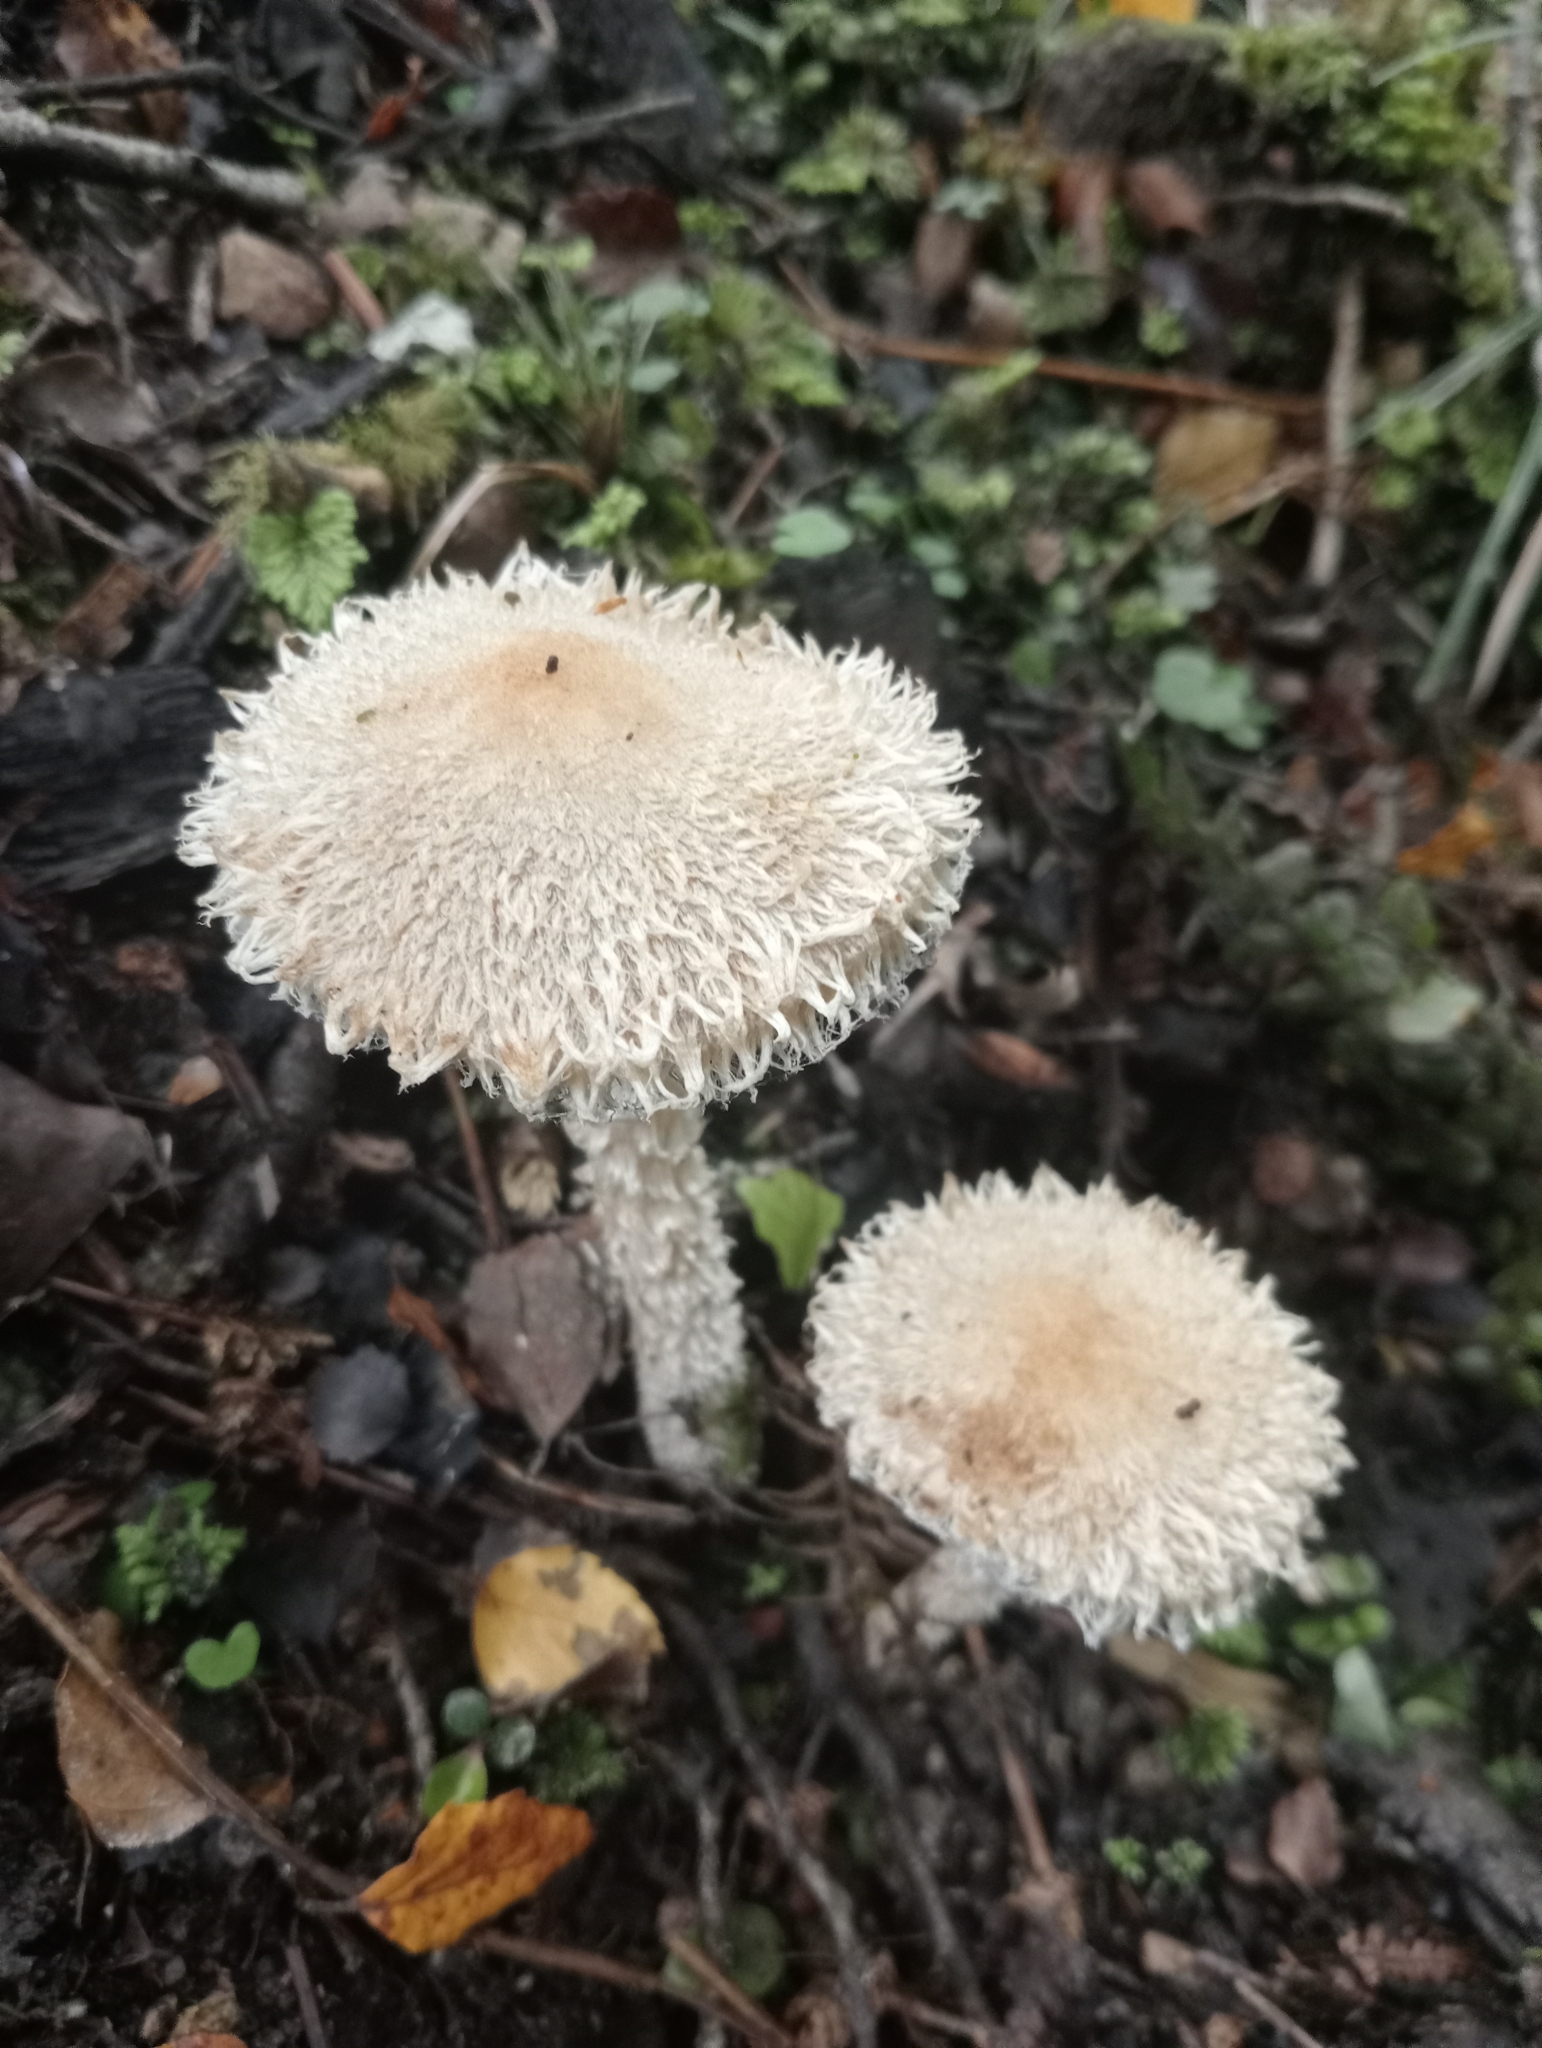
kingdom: Fungi
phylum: Basidiomycota
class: Agaricomycetes
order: Agaricales
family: Psathyrellaceae
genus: Psathyrella
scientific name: Psathyrella asperospora
